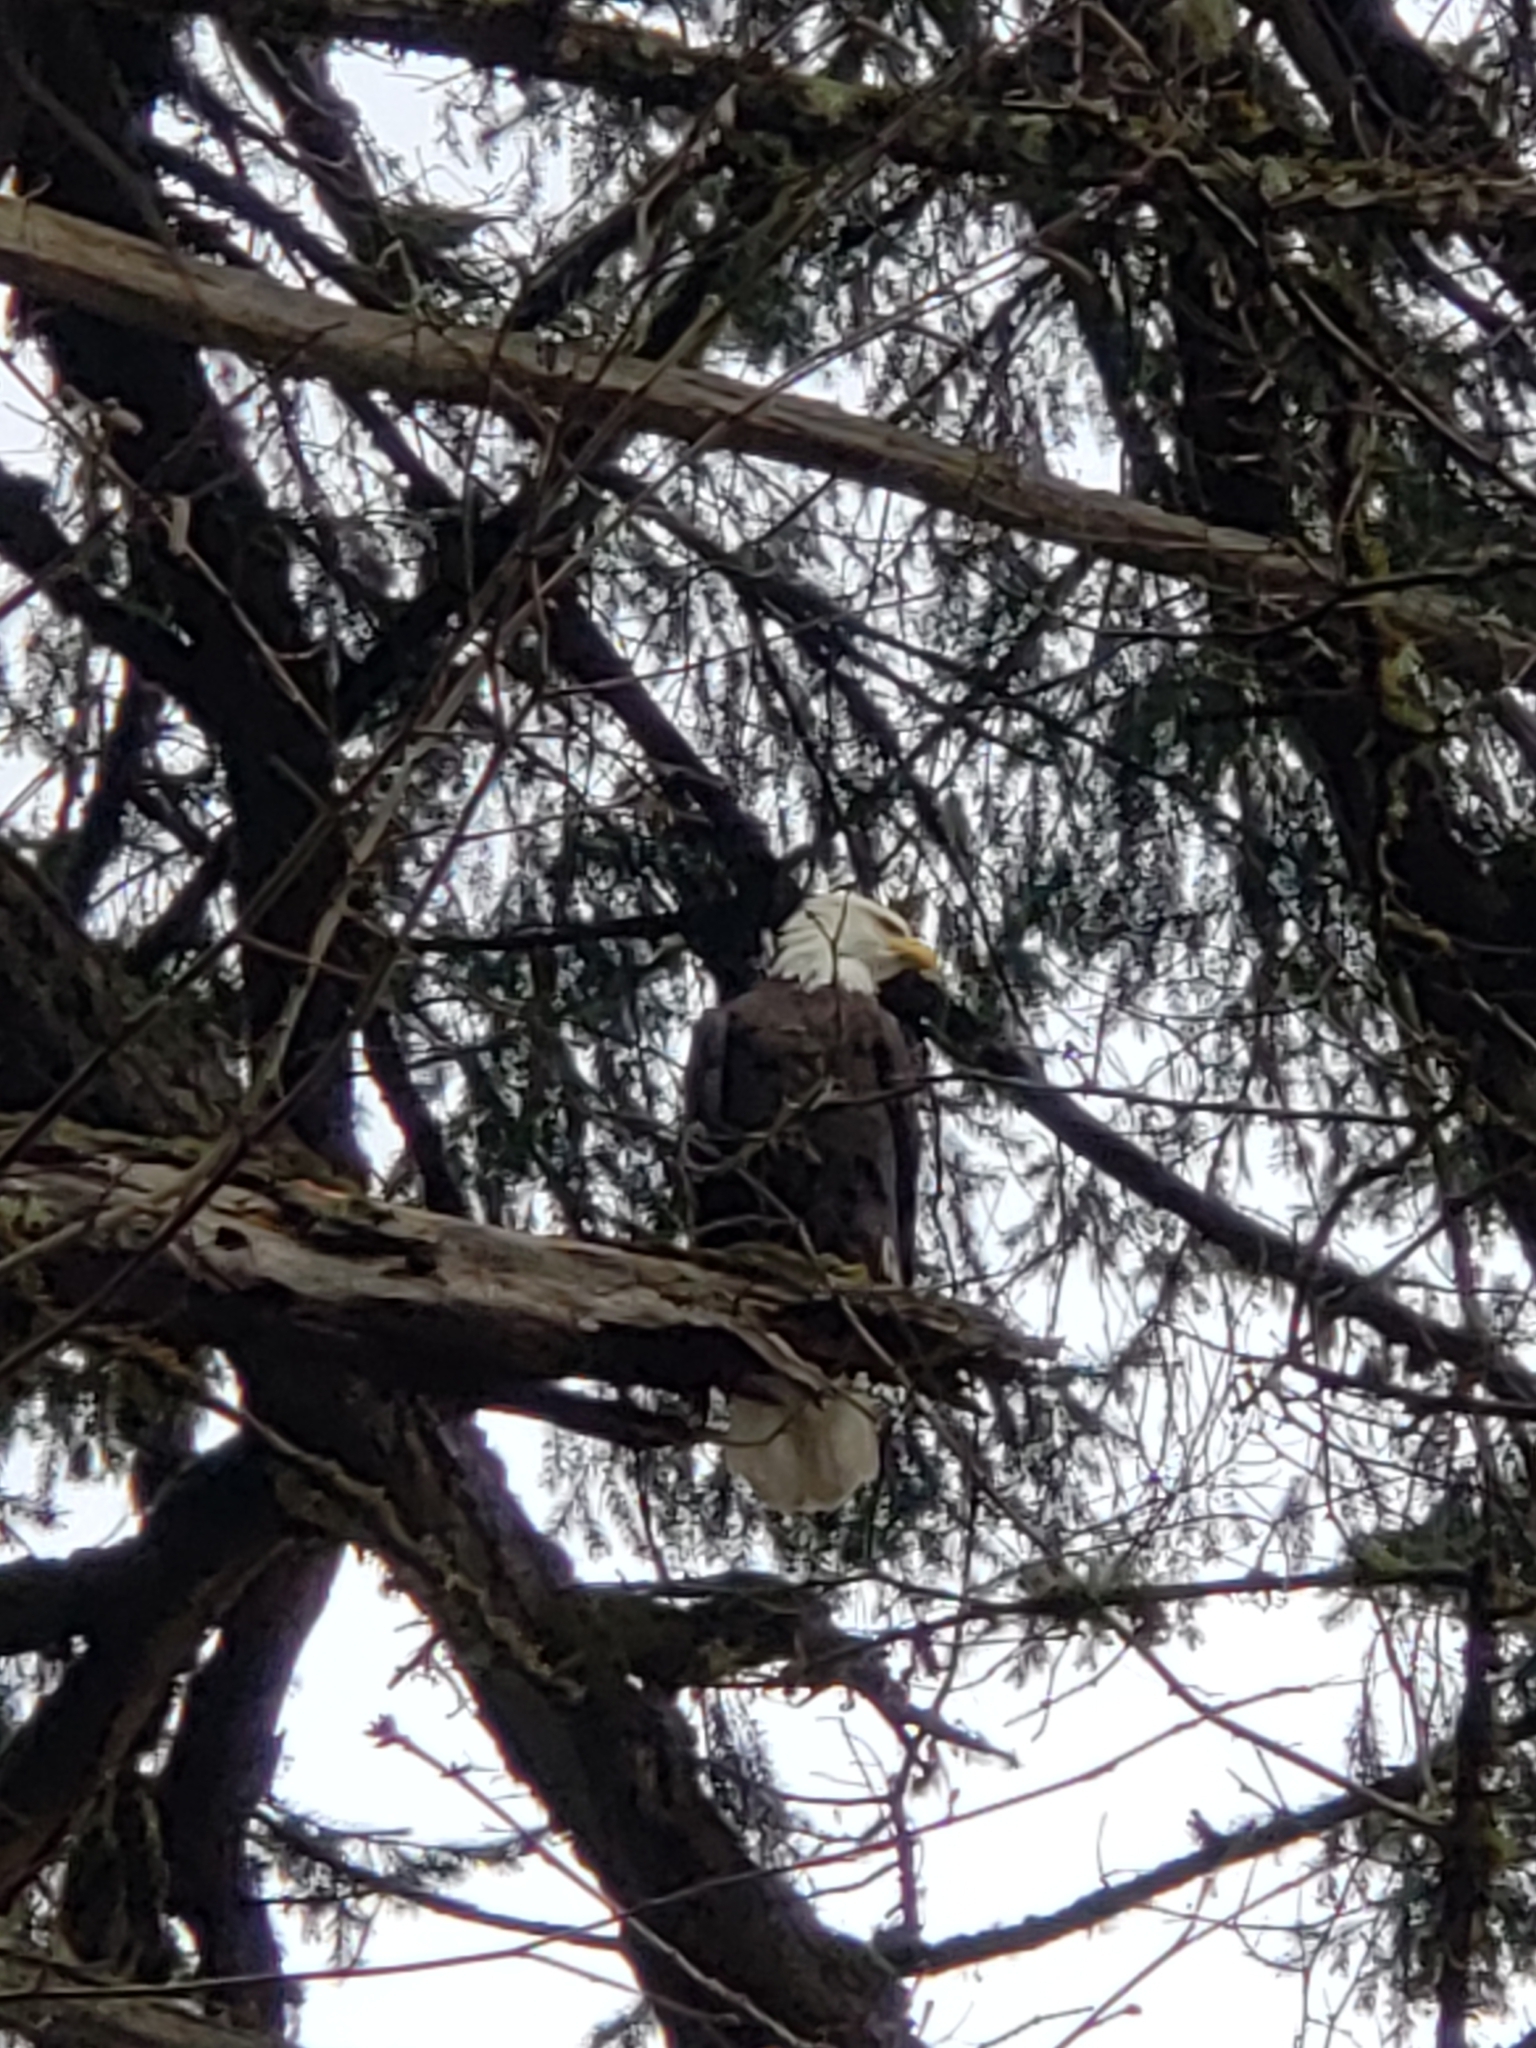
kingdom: Animalia
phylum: Chordata
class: Aves
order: Accipitriformes
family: Accipitridae
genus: Haliaeetus
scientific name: Haliaeetus leucocephalus
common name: Bald eagle
